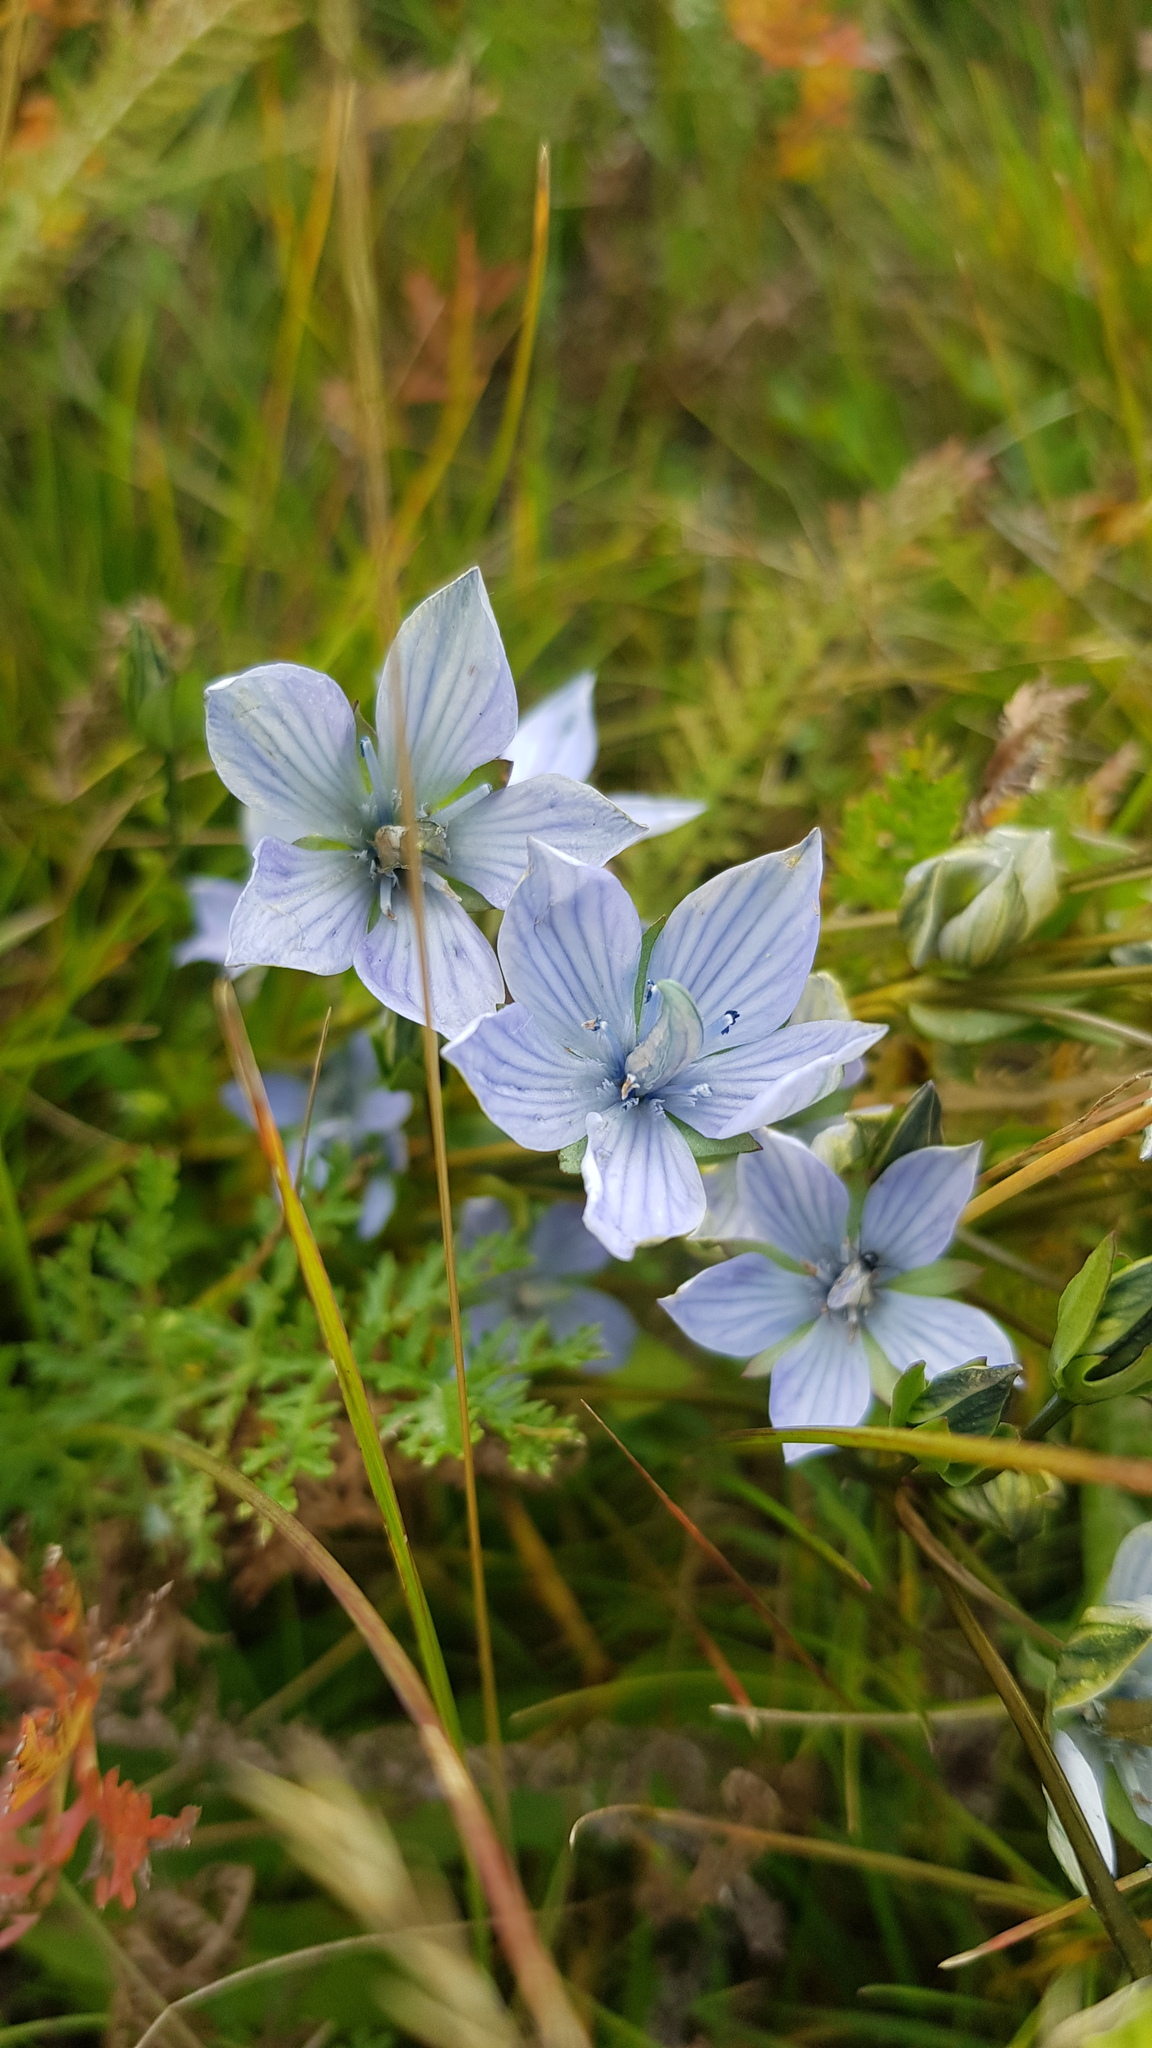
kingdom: Plantae
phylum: Tracheophyta
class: Magnoliopsida
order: Gentianales
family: Gentianaceae
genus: Lomatogonium
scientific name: Lomatogonium carinthiacum
